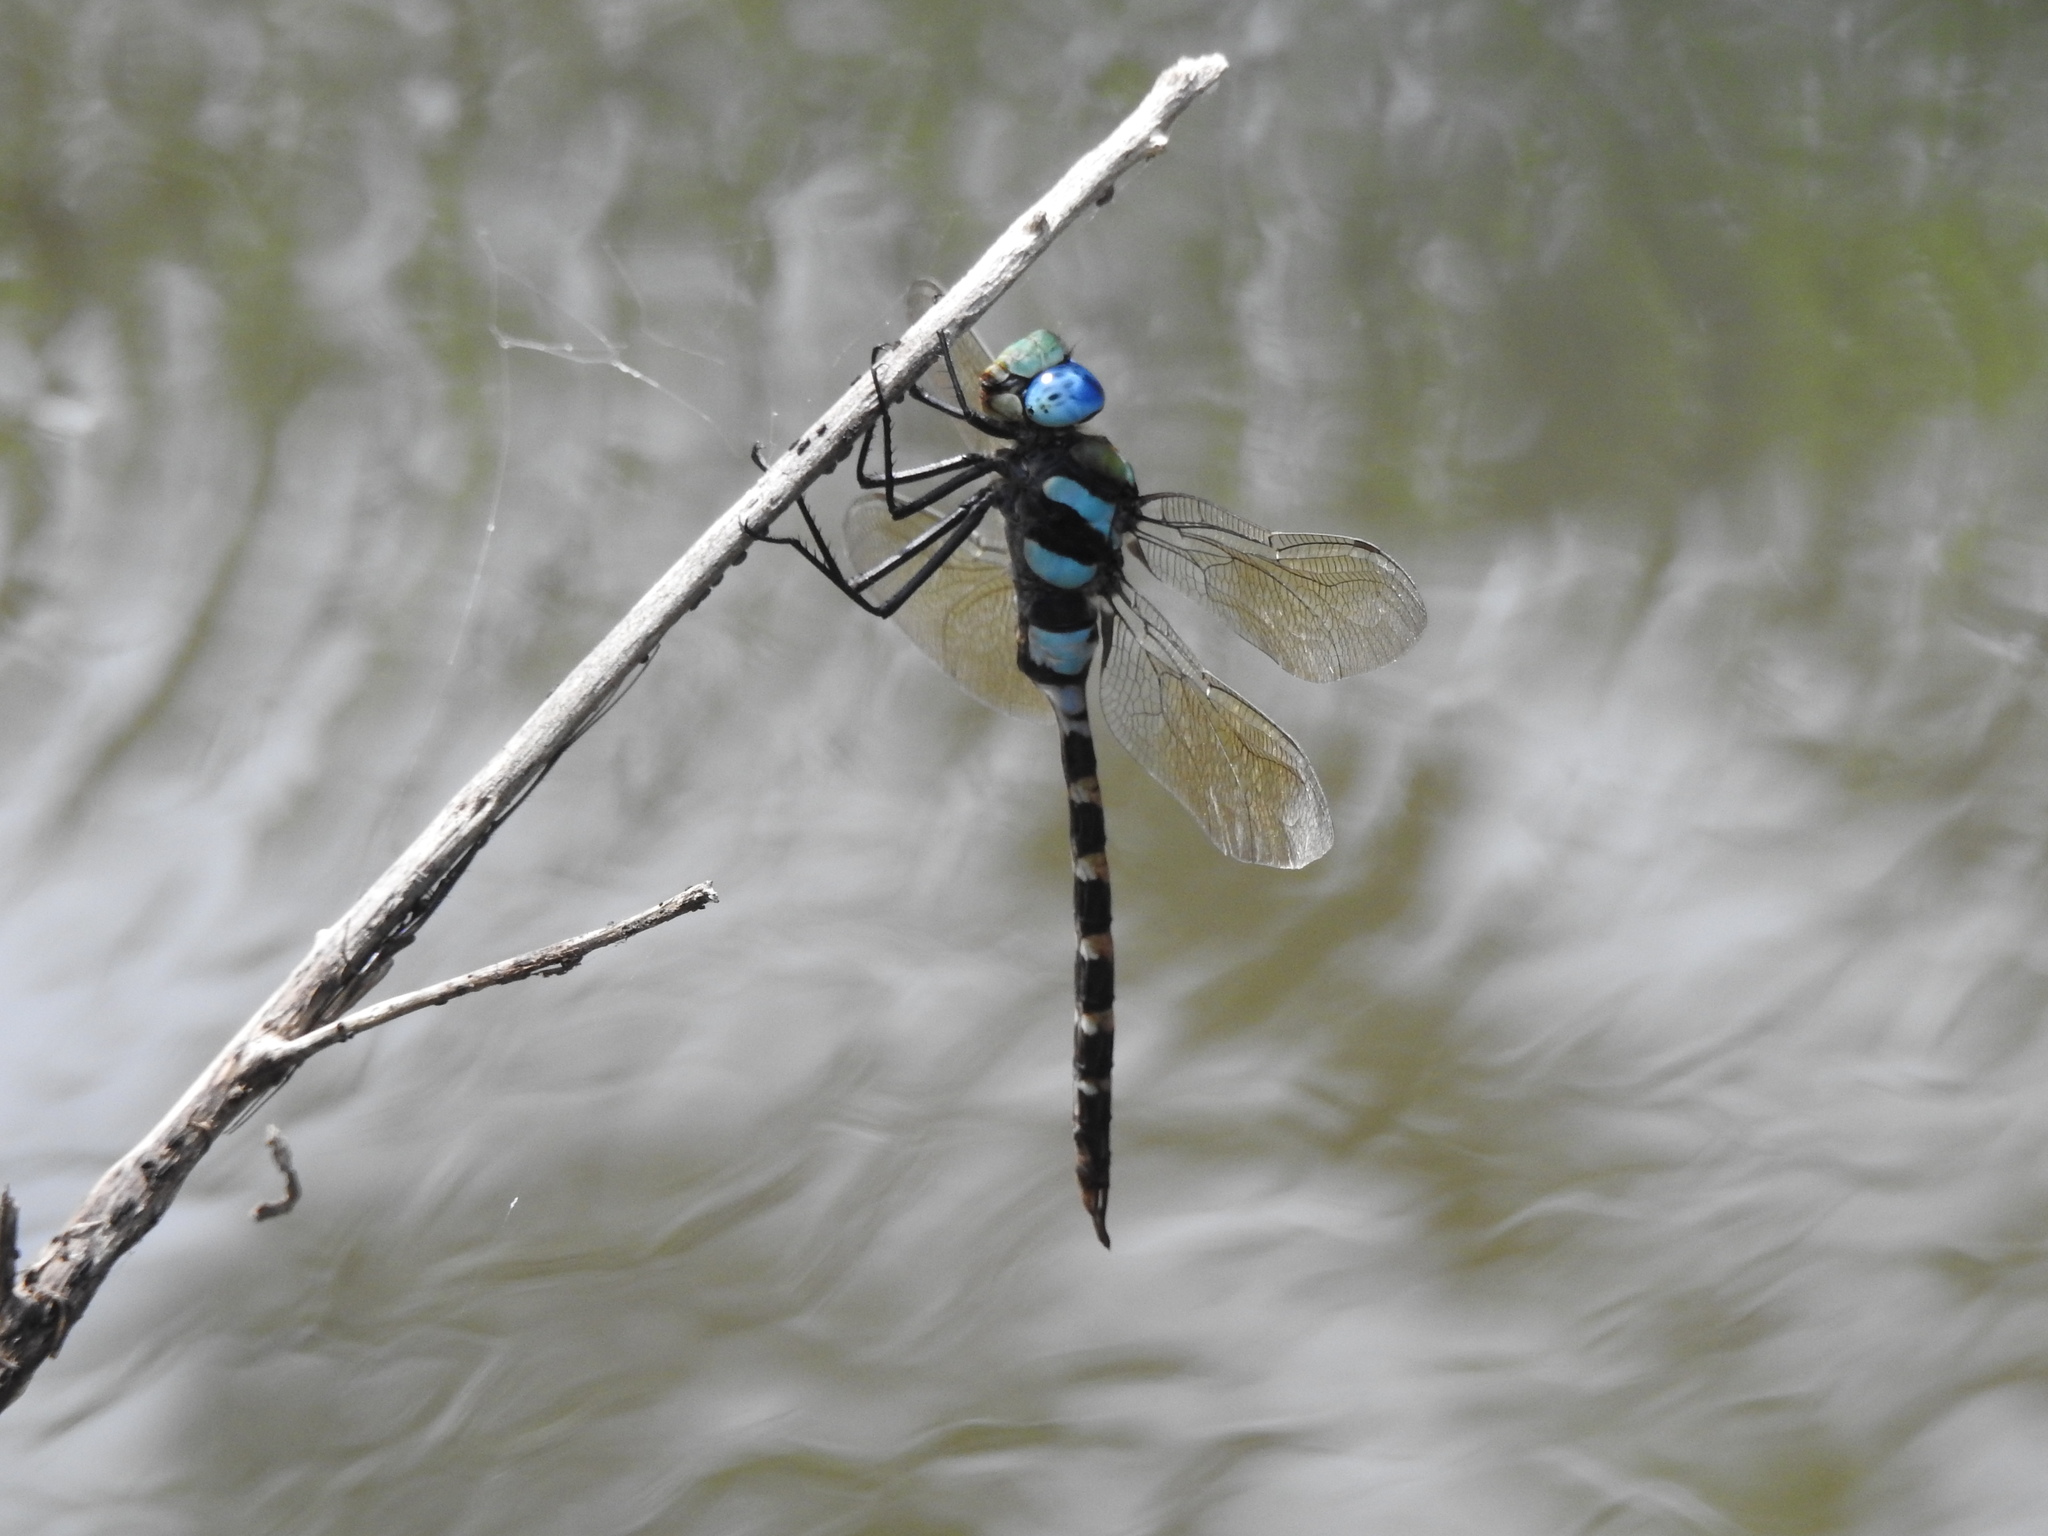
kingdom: Animalia
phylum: Arthropoda
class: Insecta
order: Odonata
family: Aeshnidae
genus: Anax
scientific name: Anax immaculifrons
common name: Magnificent emperor
